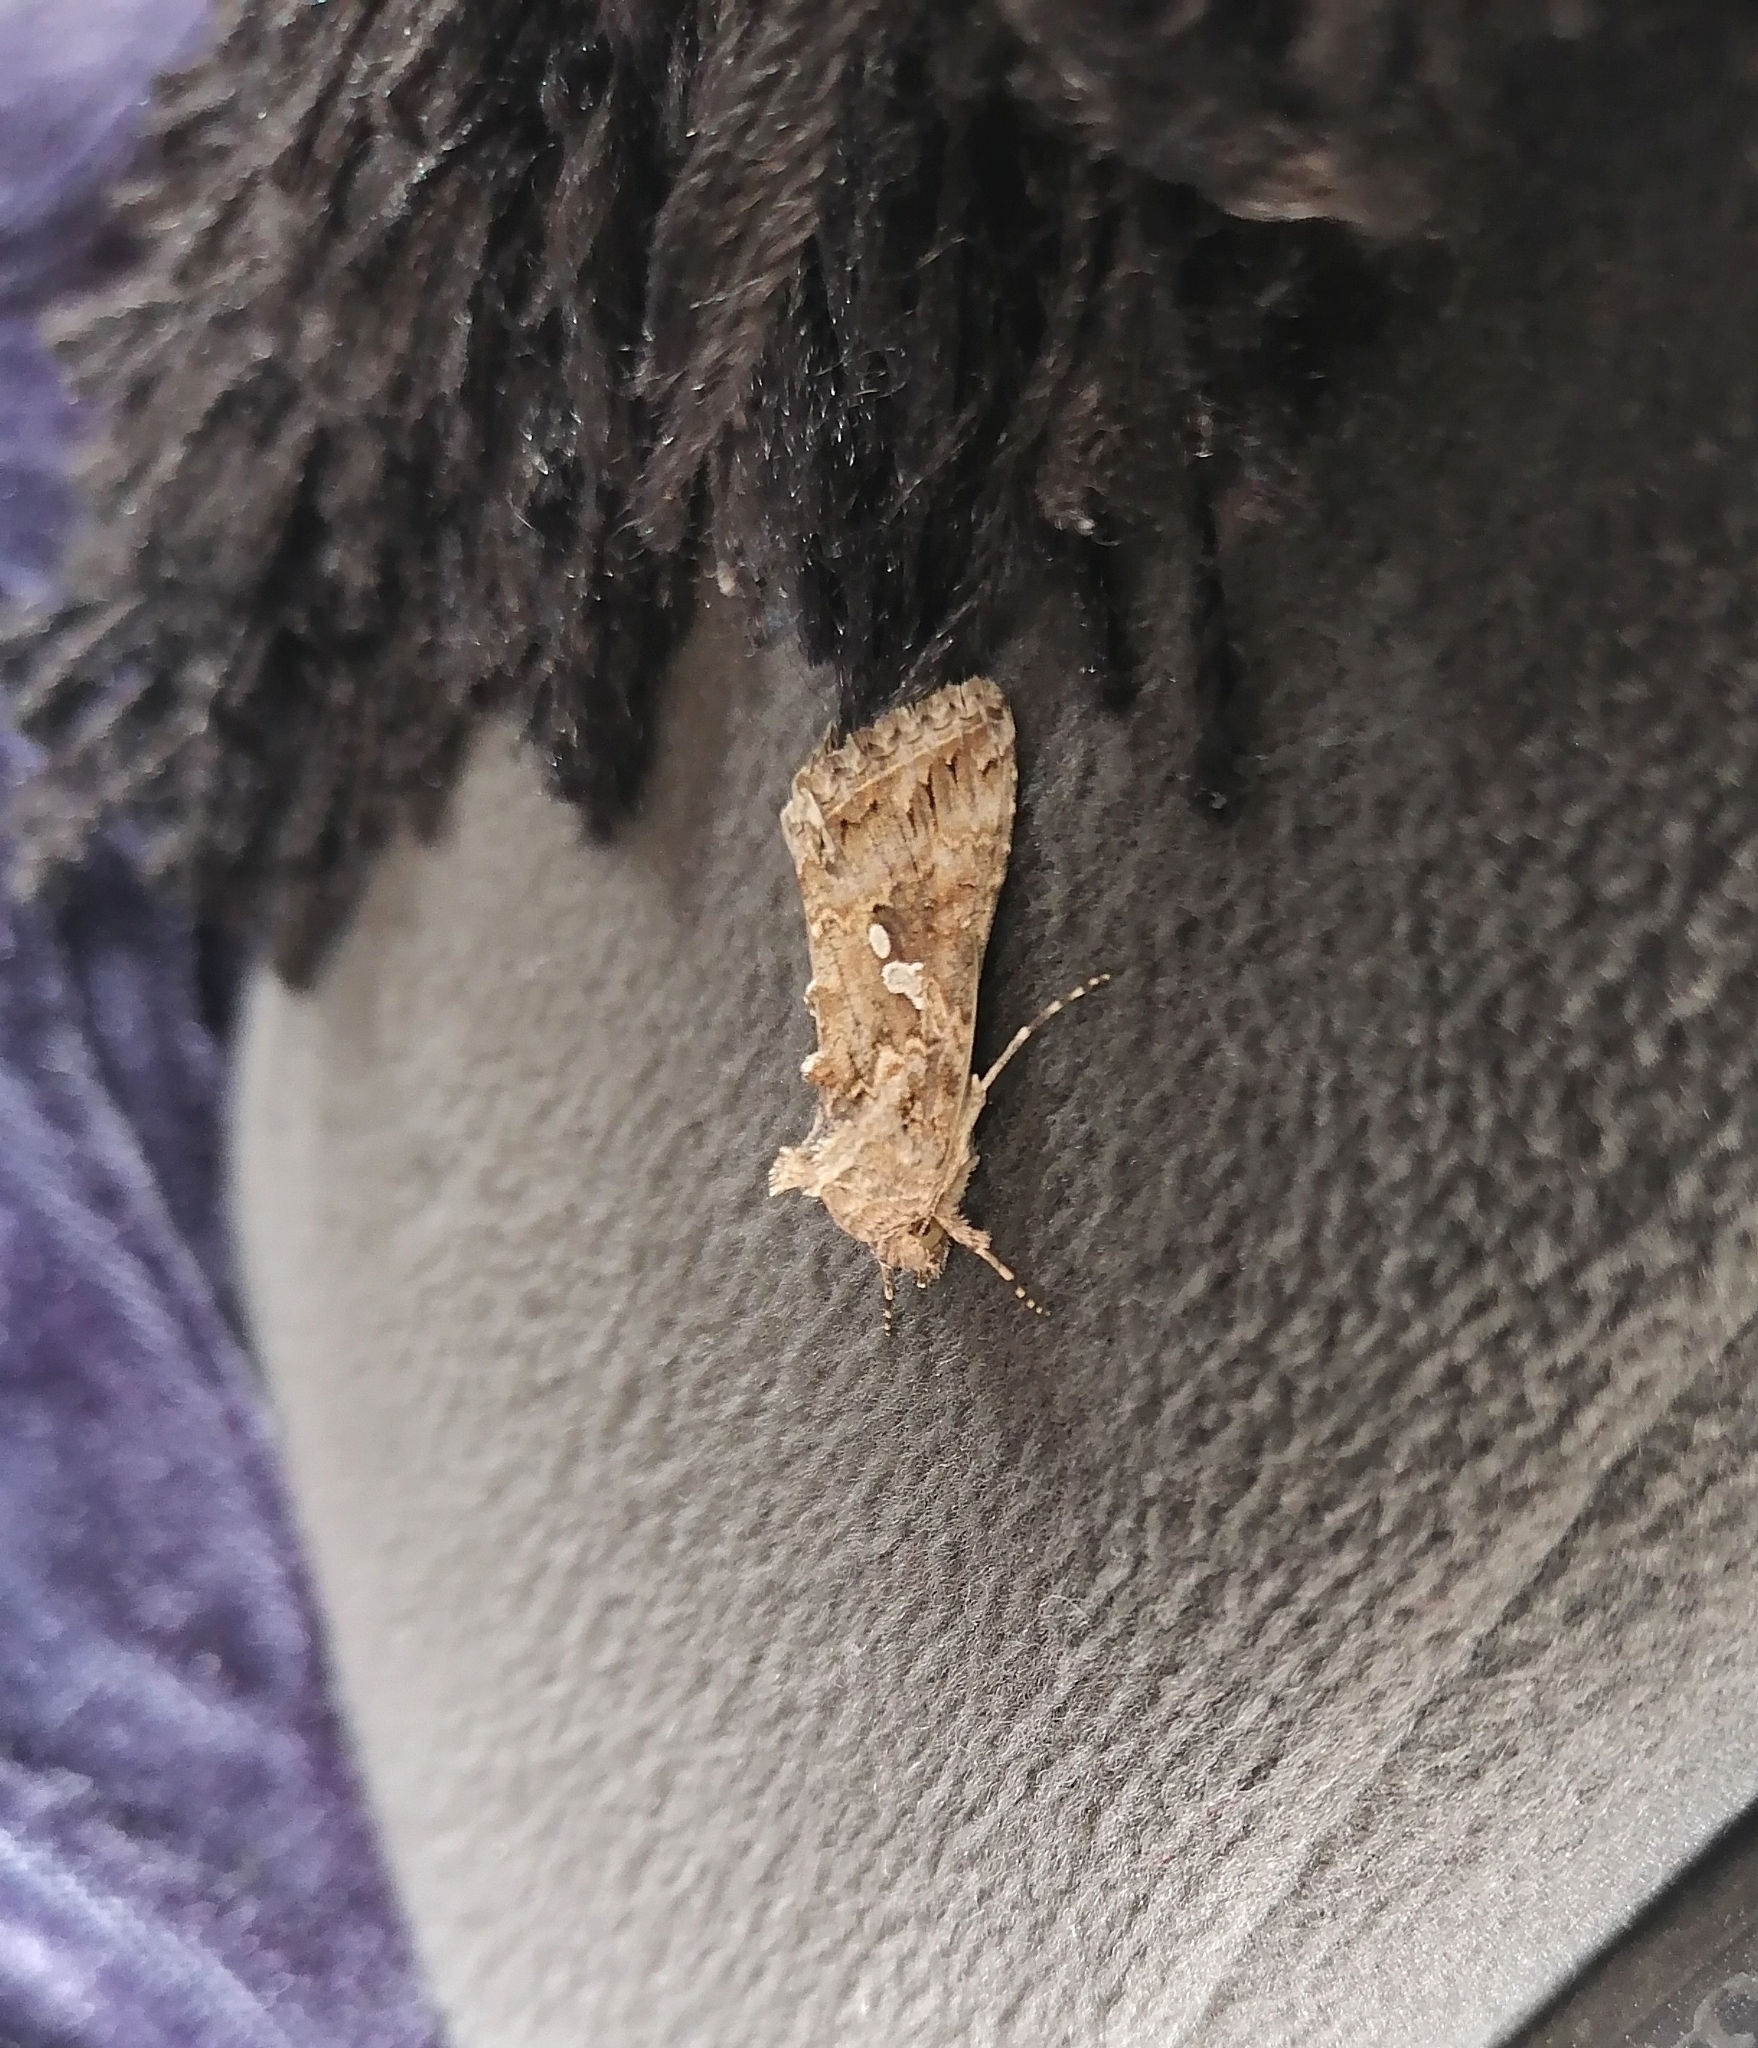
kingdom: Animalia
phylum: Arthropoda
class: Insecta
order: Lepidoptera
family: Noctuidae
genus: Trichoplusia
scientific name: Trichoplusia ni
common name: Ni moth
